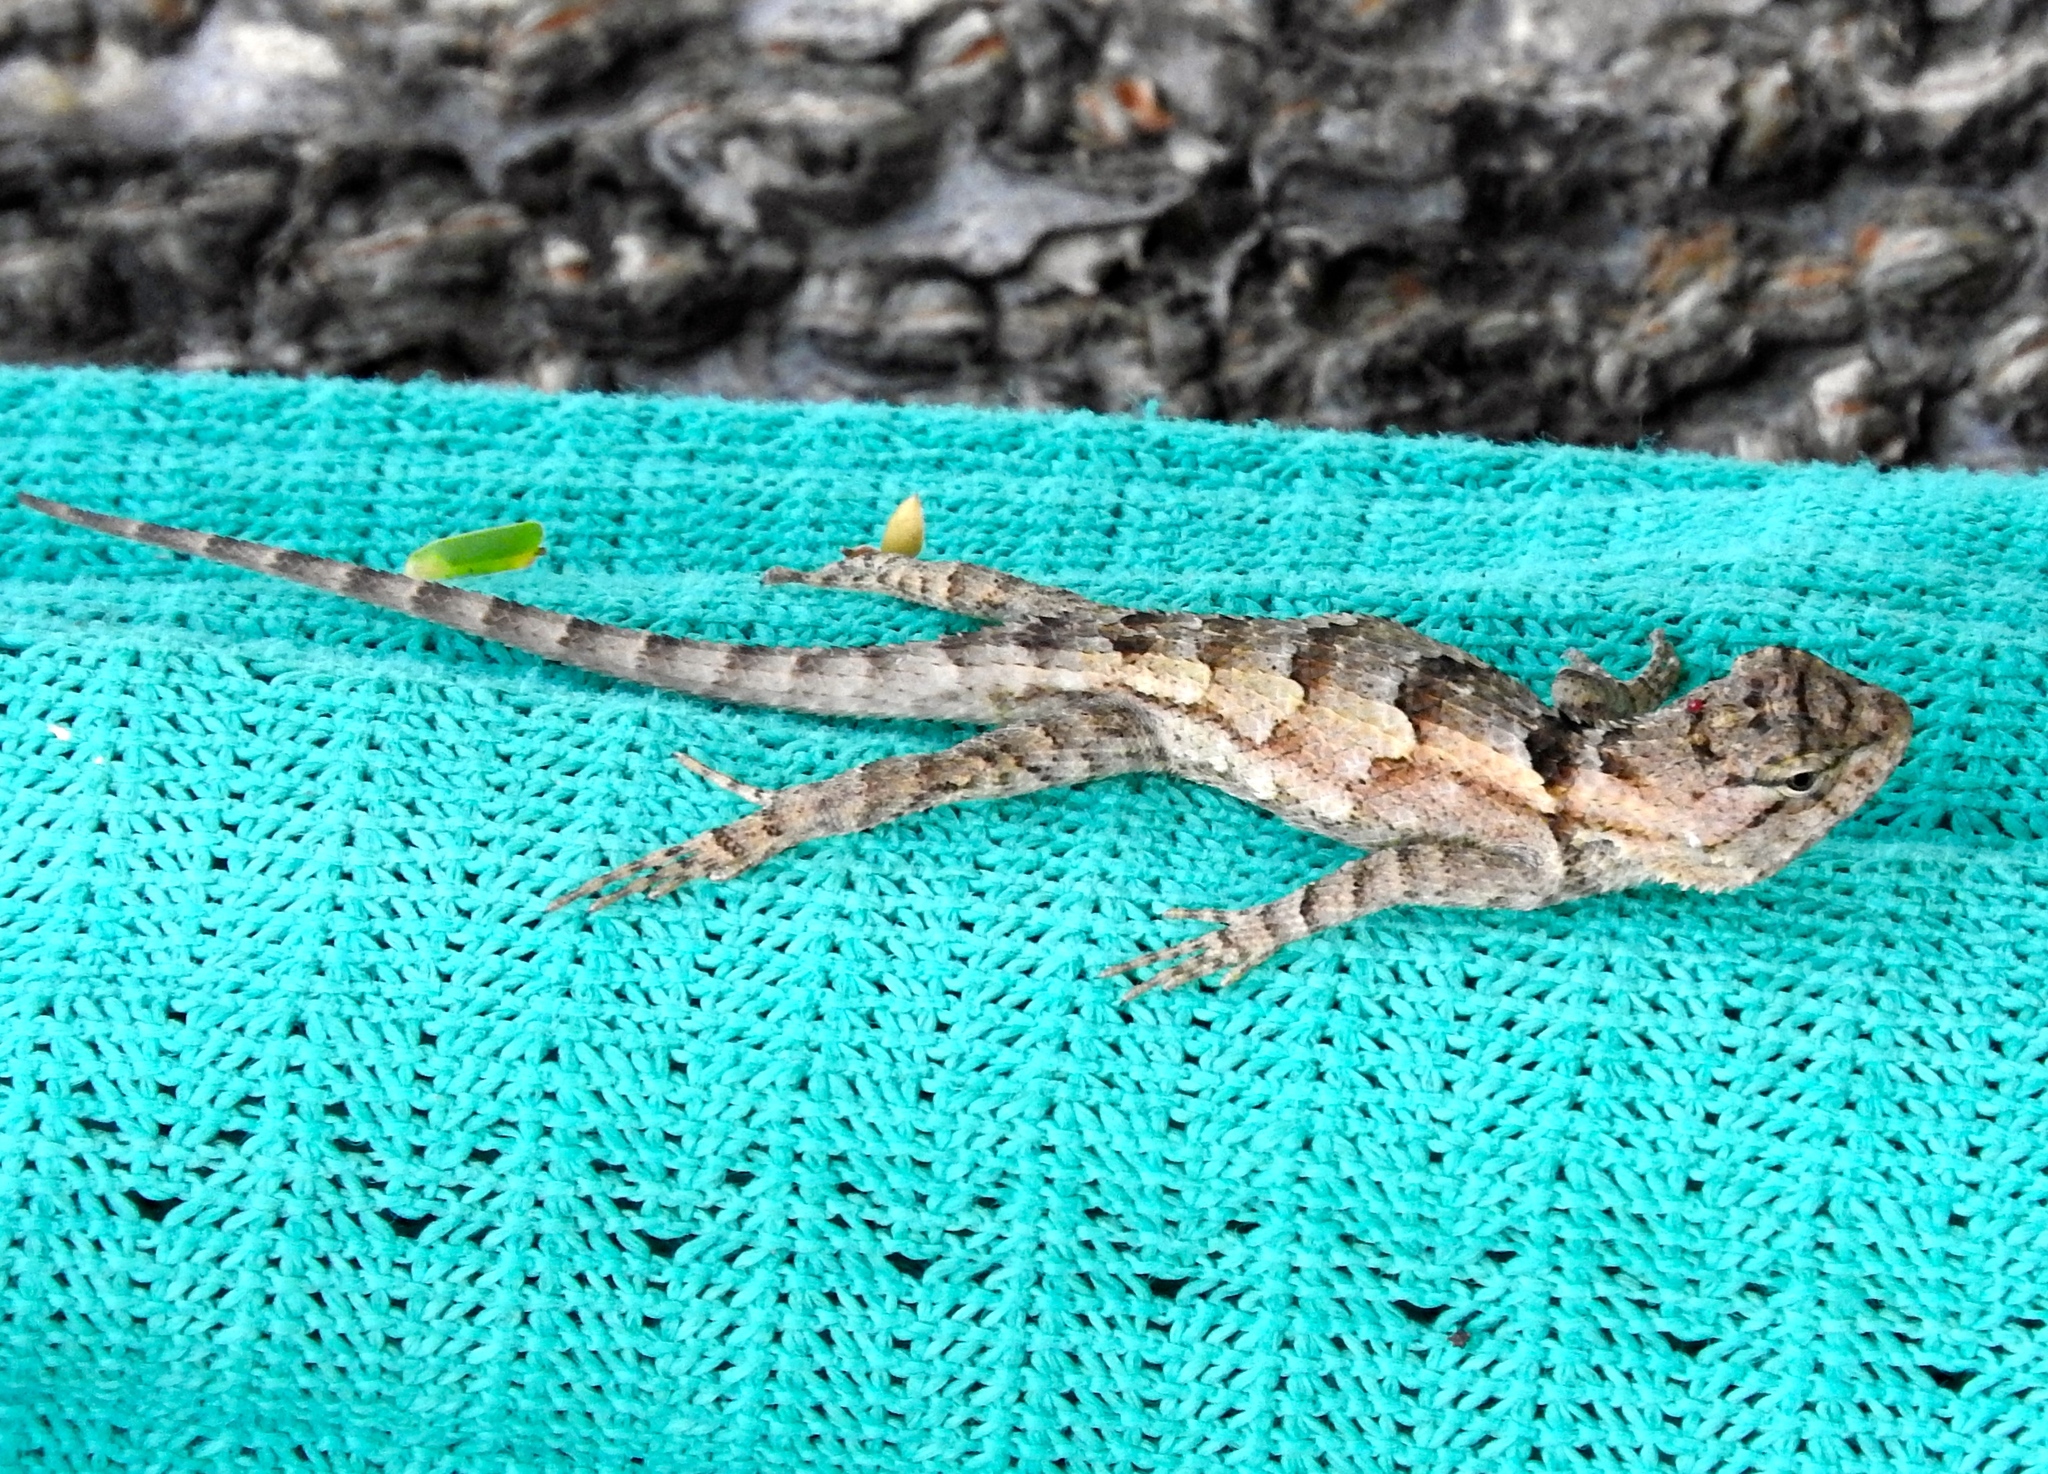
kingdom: Animalia
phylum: Chordata
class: Squamata
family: Phrynosomatidae
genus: Sceloporus
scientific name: Sceloporus clarkii
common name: Clark's spiny lizard
